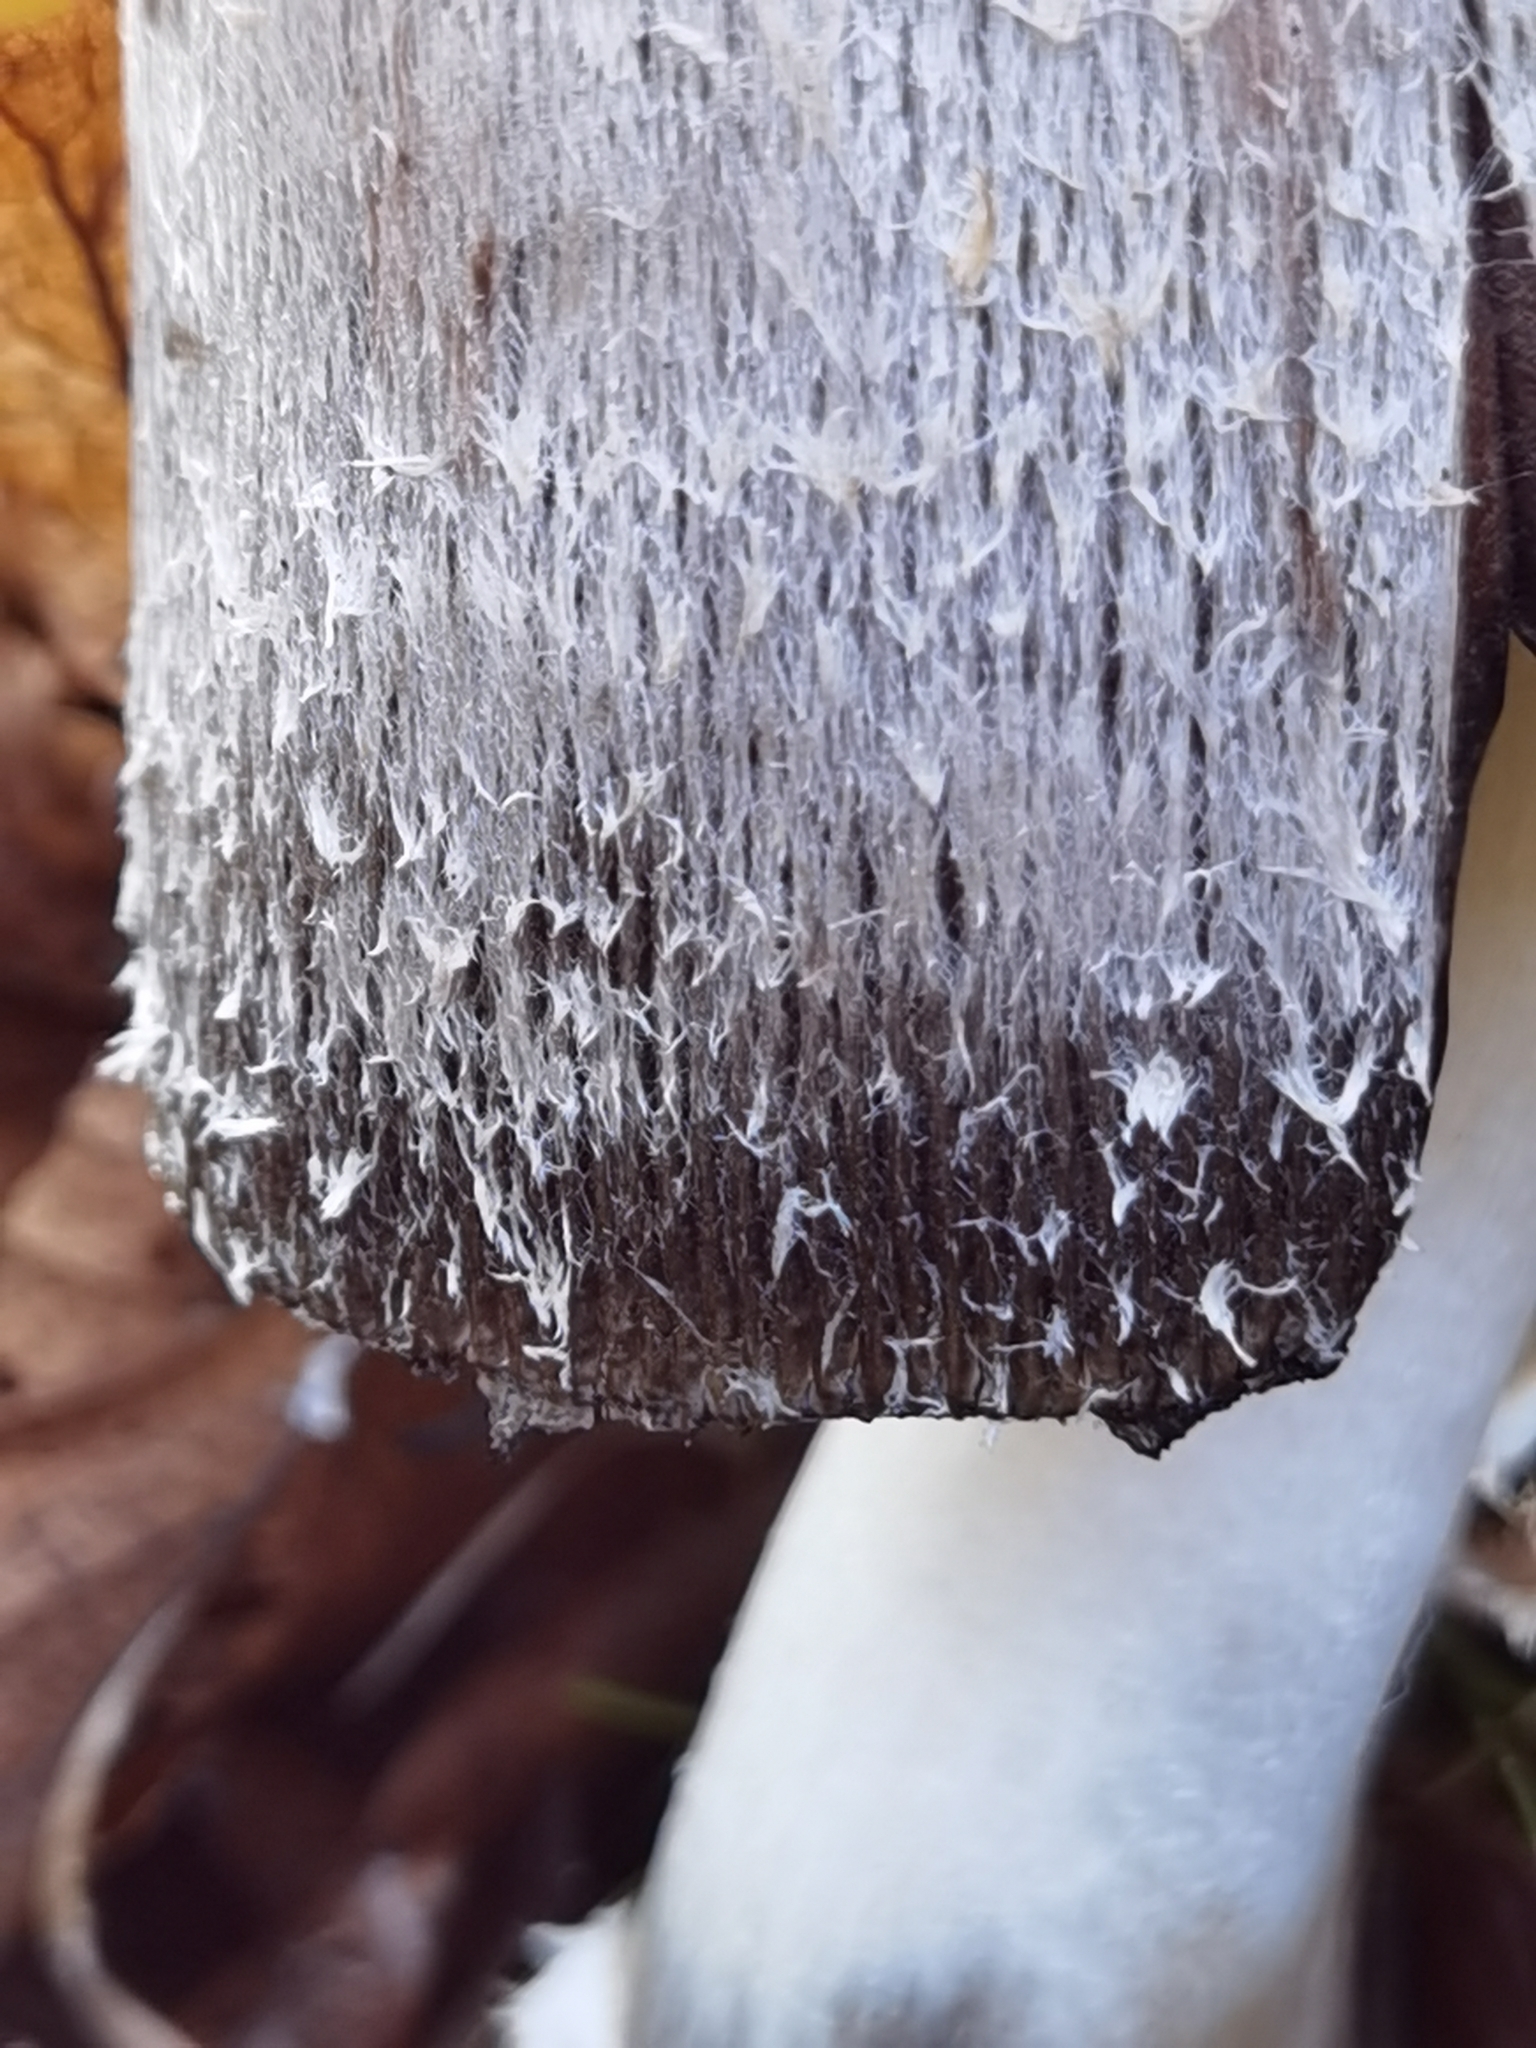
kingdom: Fungi
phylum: Basidiomycota
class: Agaricomycetes
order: Agaricales
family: Agaricaceae
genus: Coprinus
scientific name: Coprinus comatus
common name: Lawyer's wig
